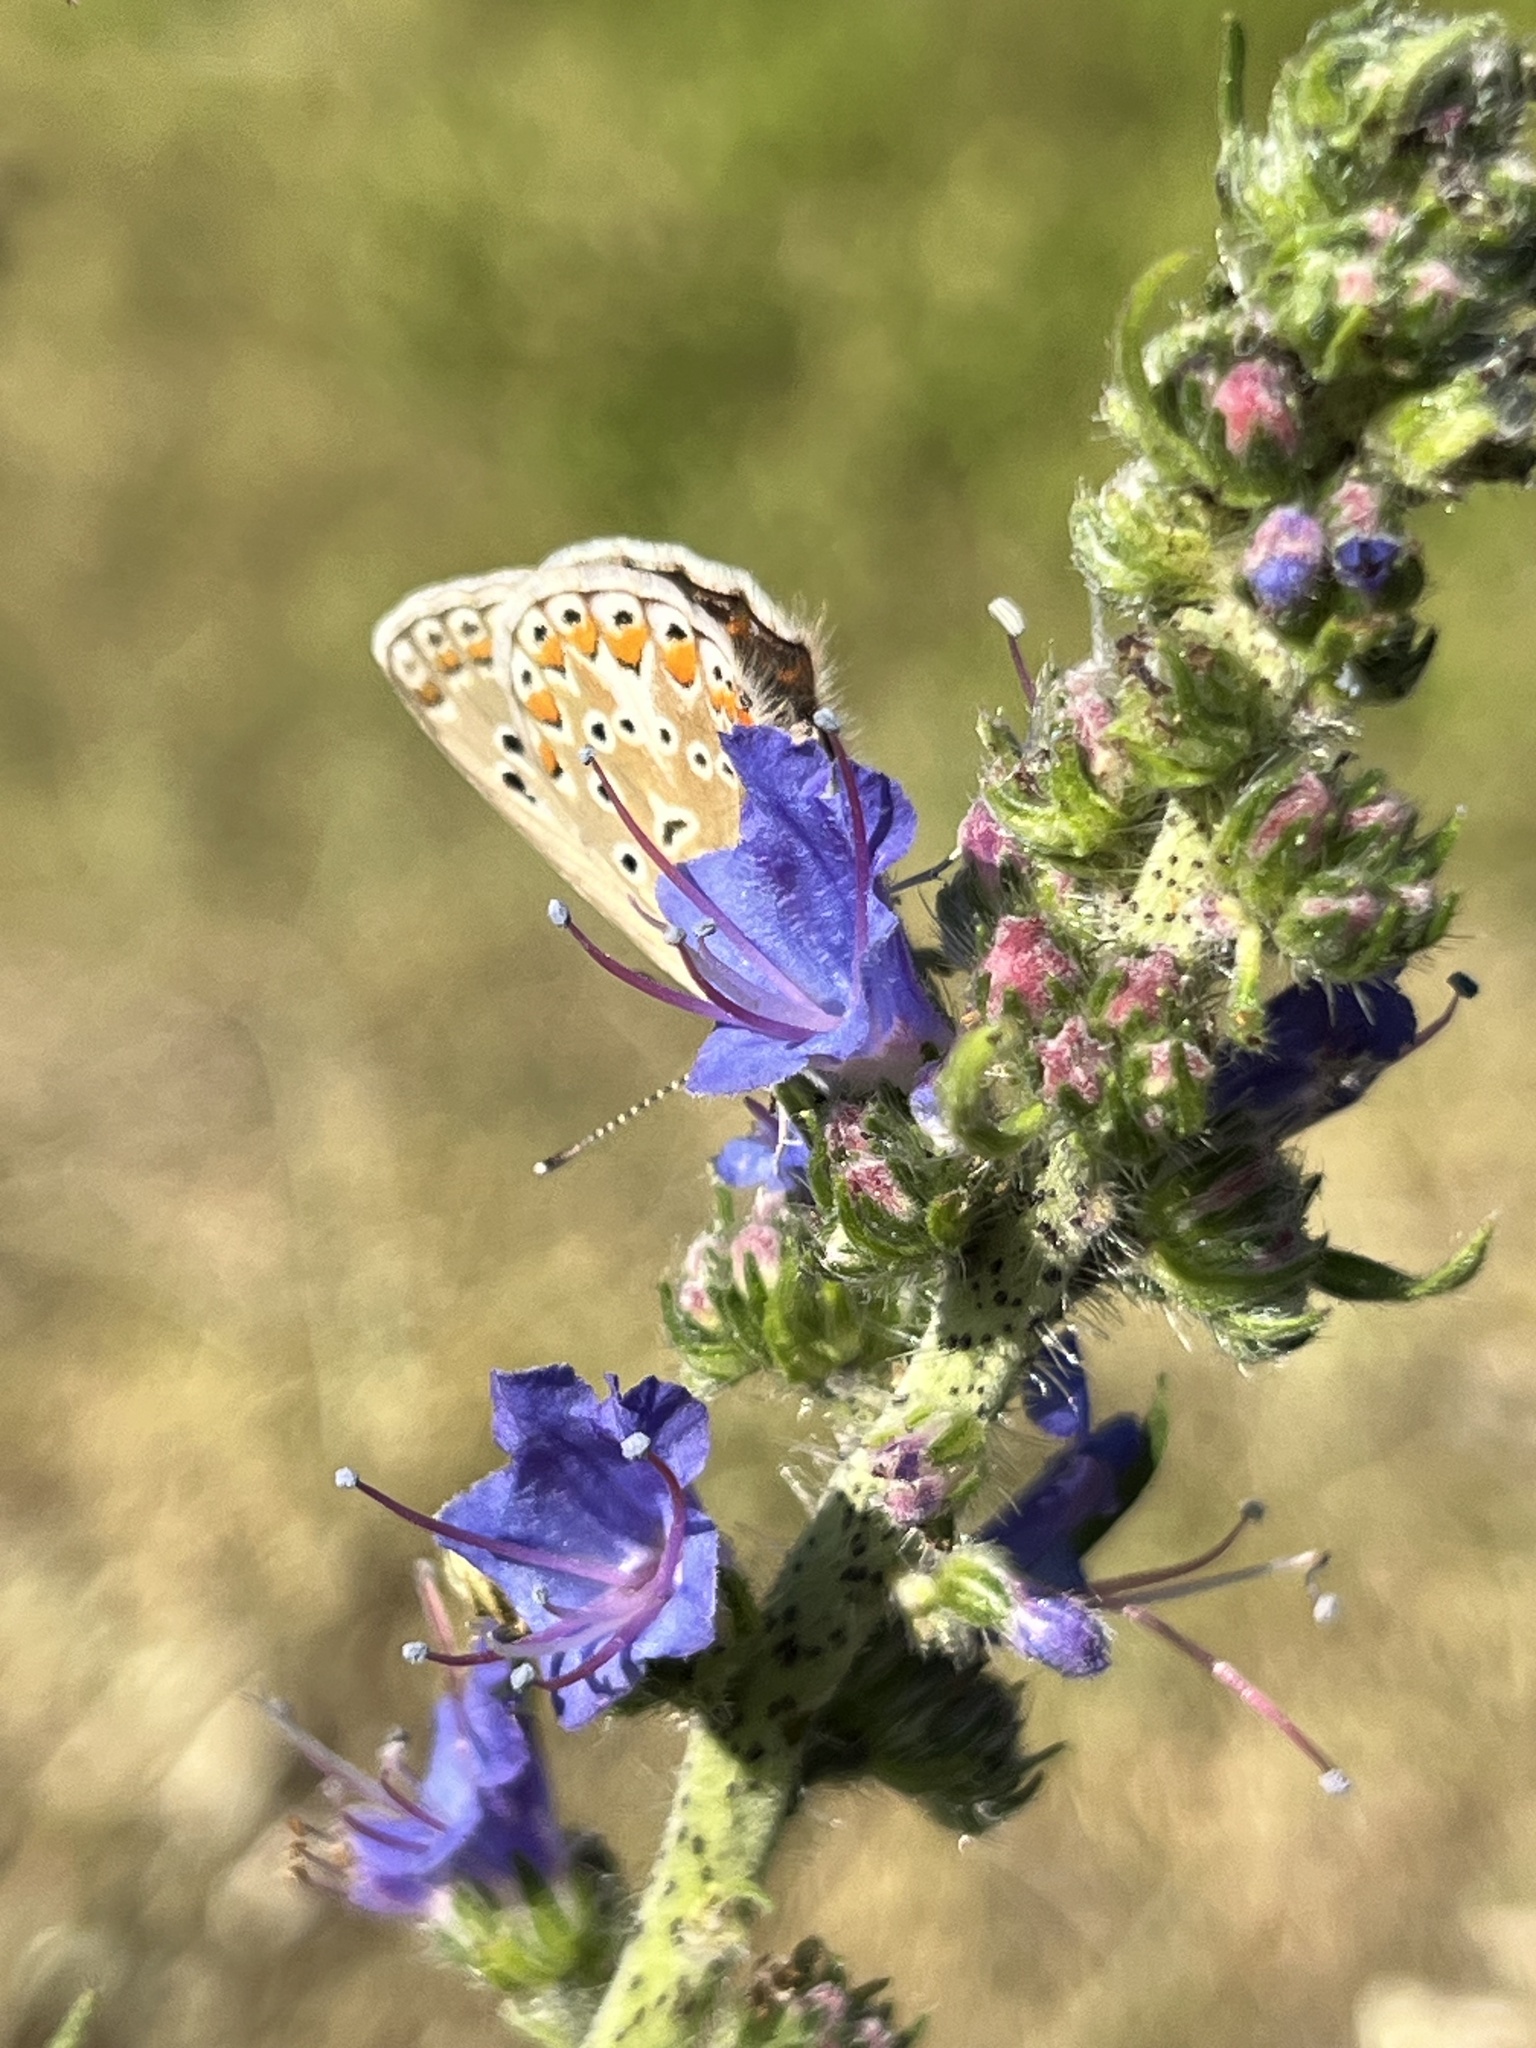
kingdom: Plantae
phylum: Tracheophyta
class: Magnoliopsida
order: Boraginales
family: Boraginaceae
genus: Echium
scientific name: Echium vulgare
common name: Common viper's bugloss
